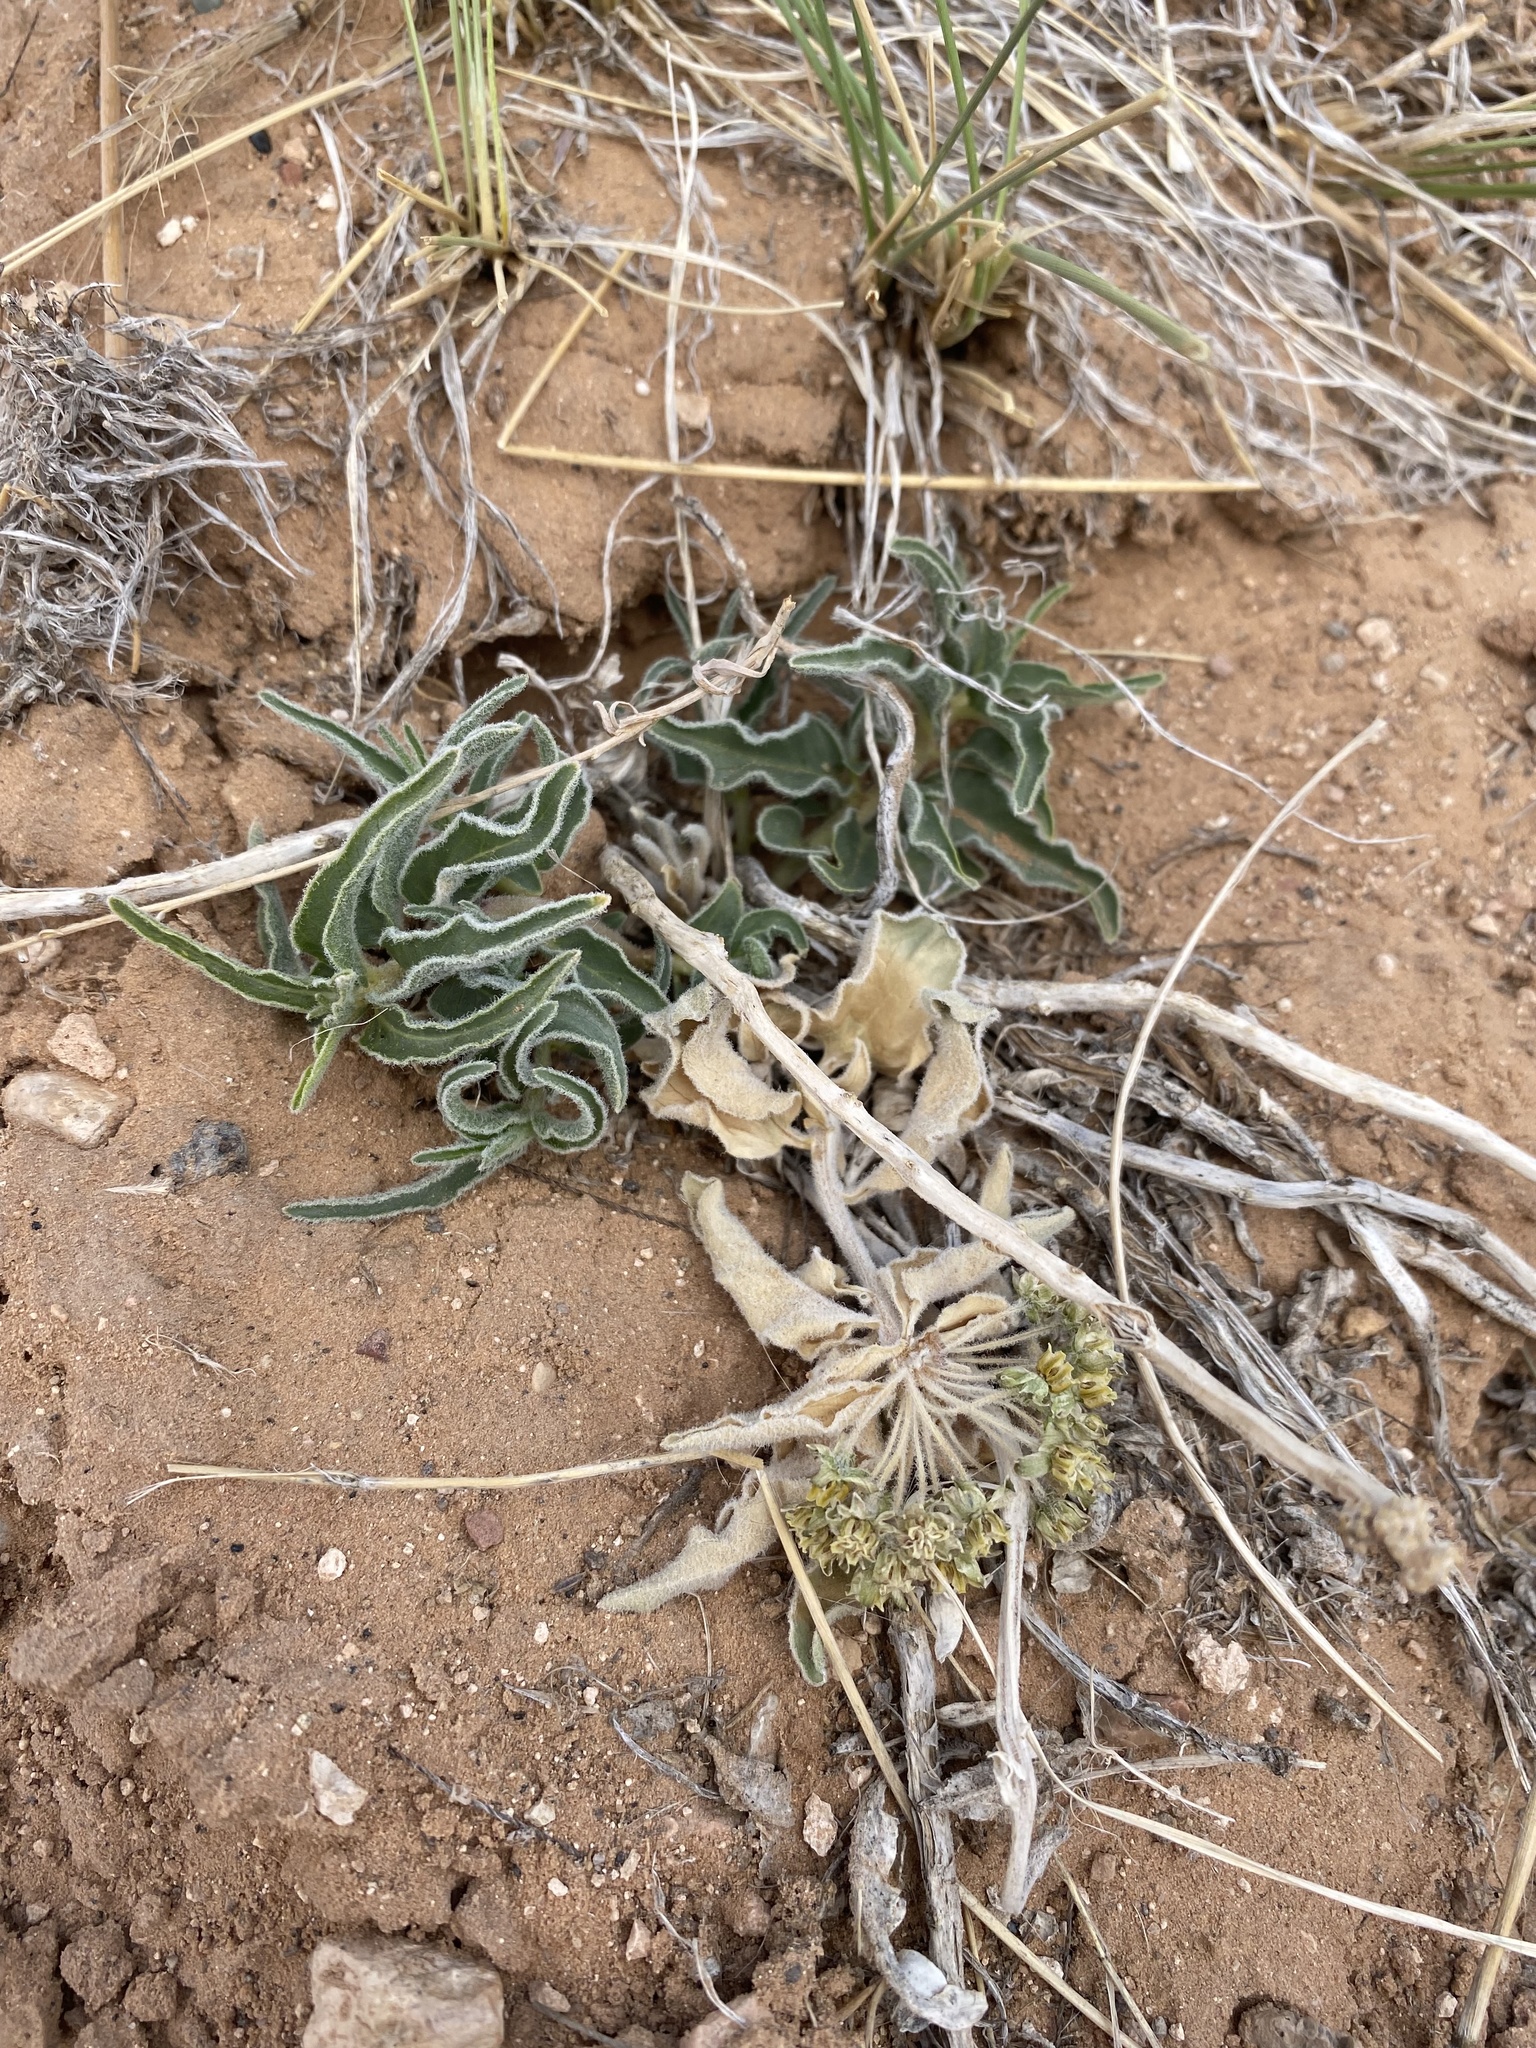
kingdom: Plantae
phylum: Tracheophyta
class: Magnoliopsida
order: Gentianales
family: Apocynaceae
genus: Asclepias
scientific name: Asclepias involucrata
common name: Dwarf milkweed
